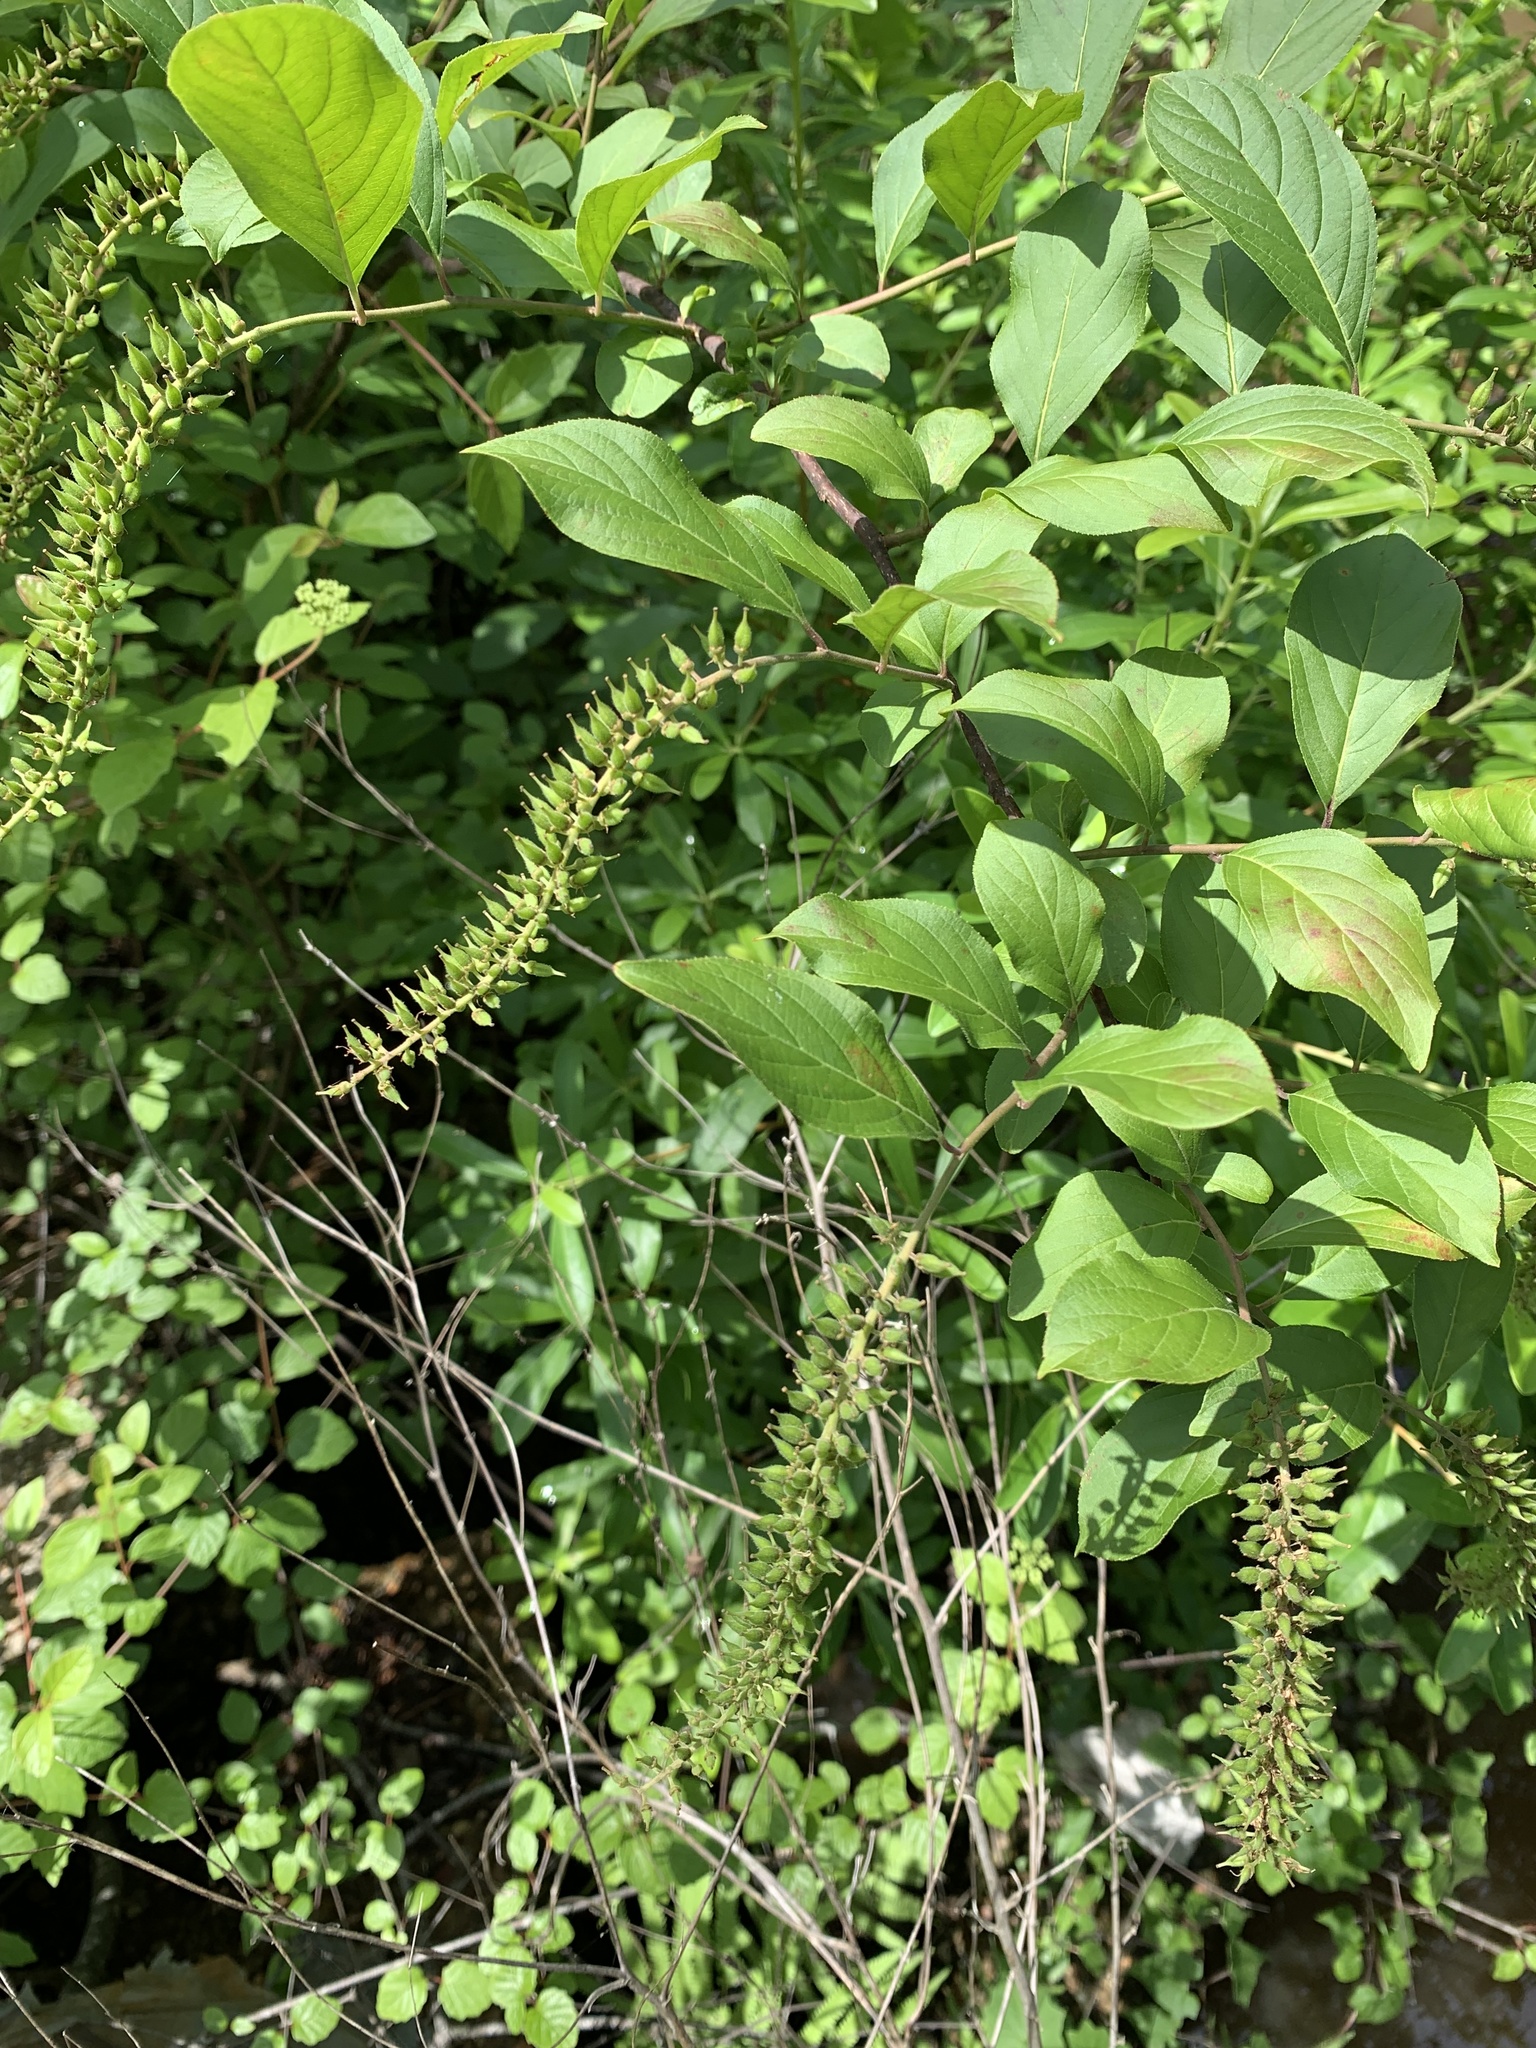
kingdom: Plantae
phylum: Tracheophyta
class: Magnoliopsida
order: Saxifragales
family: Iteaceae
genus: Itea
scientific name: Itea virginica
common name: Sweetspire
